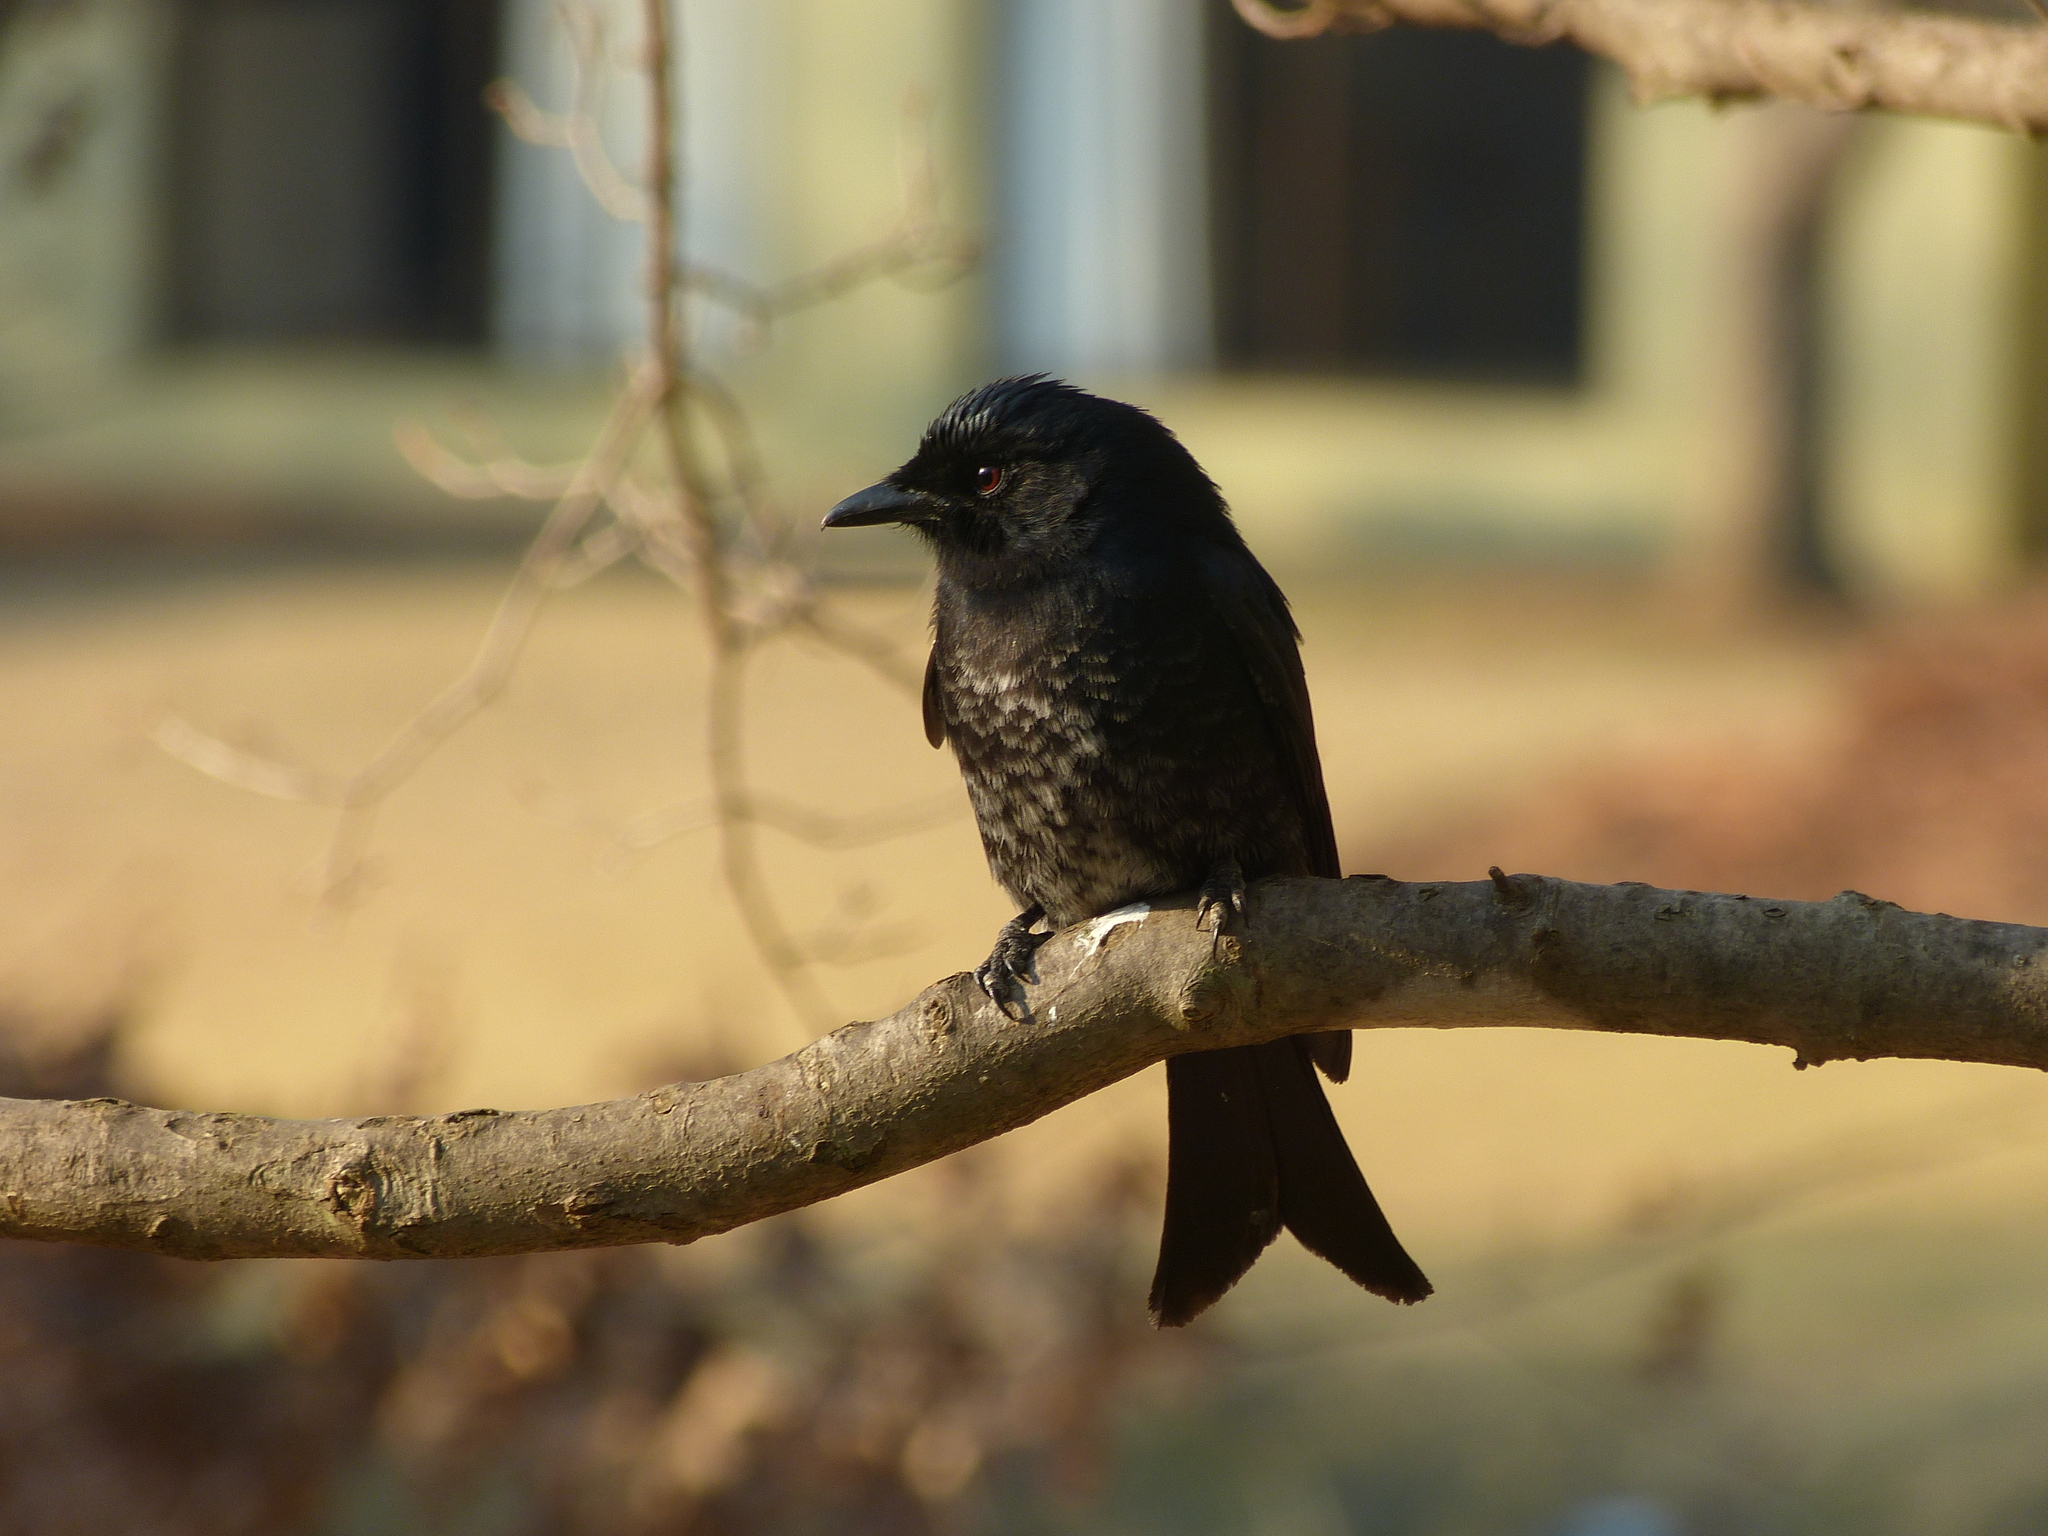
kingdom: Animalia
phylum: Chordata
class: Aves
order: Passeriformes
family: Dicruridae
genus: Dicrurus
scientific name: Dicrurus adsimilis
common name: Fork-tailed drongo
